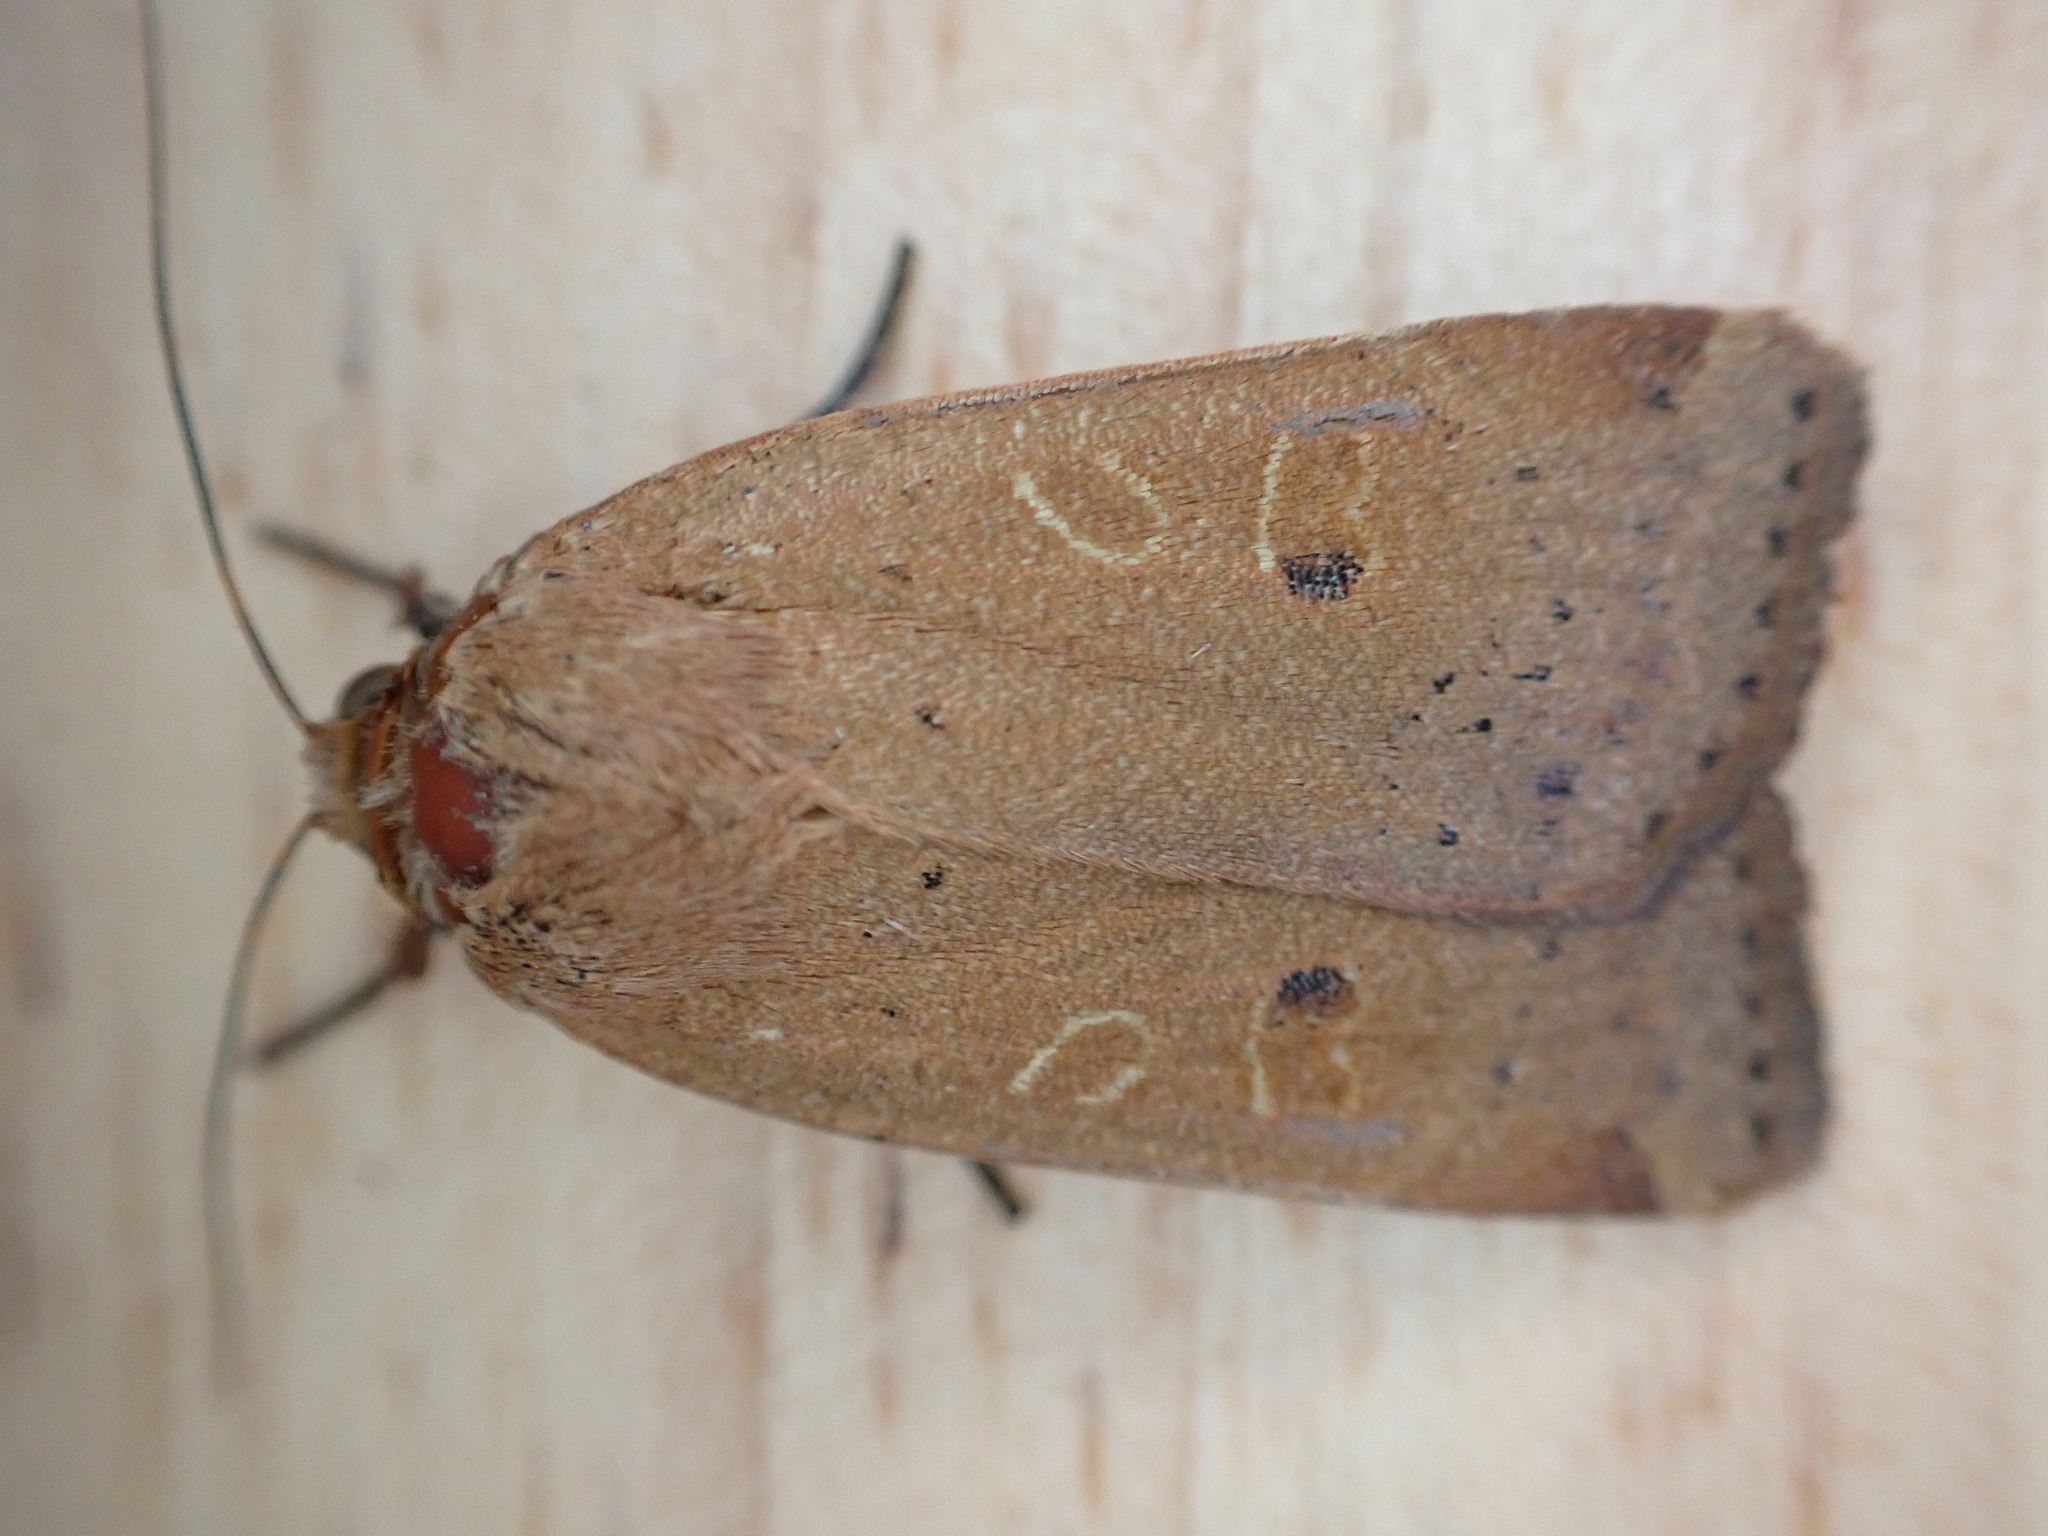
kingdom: Animalia
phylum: Arthropoda
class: Insecta
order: Lepidoptera
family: Noctuidae
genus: Noctua
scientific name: Noctua comes
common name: Lesser yellow underwing
